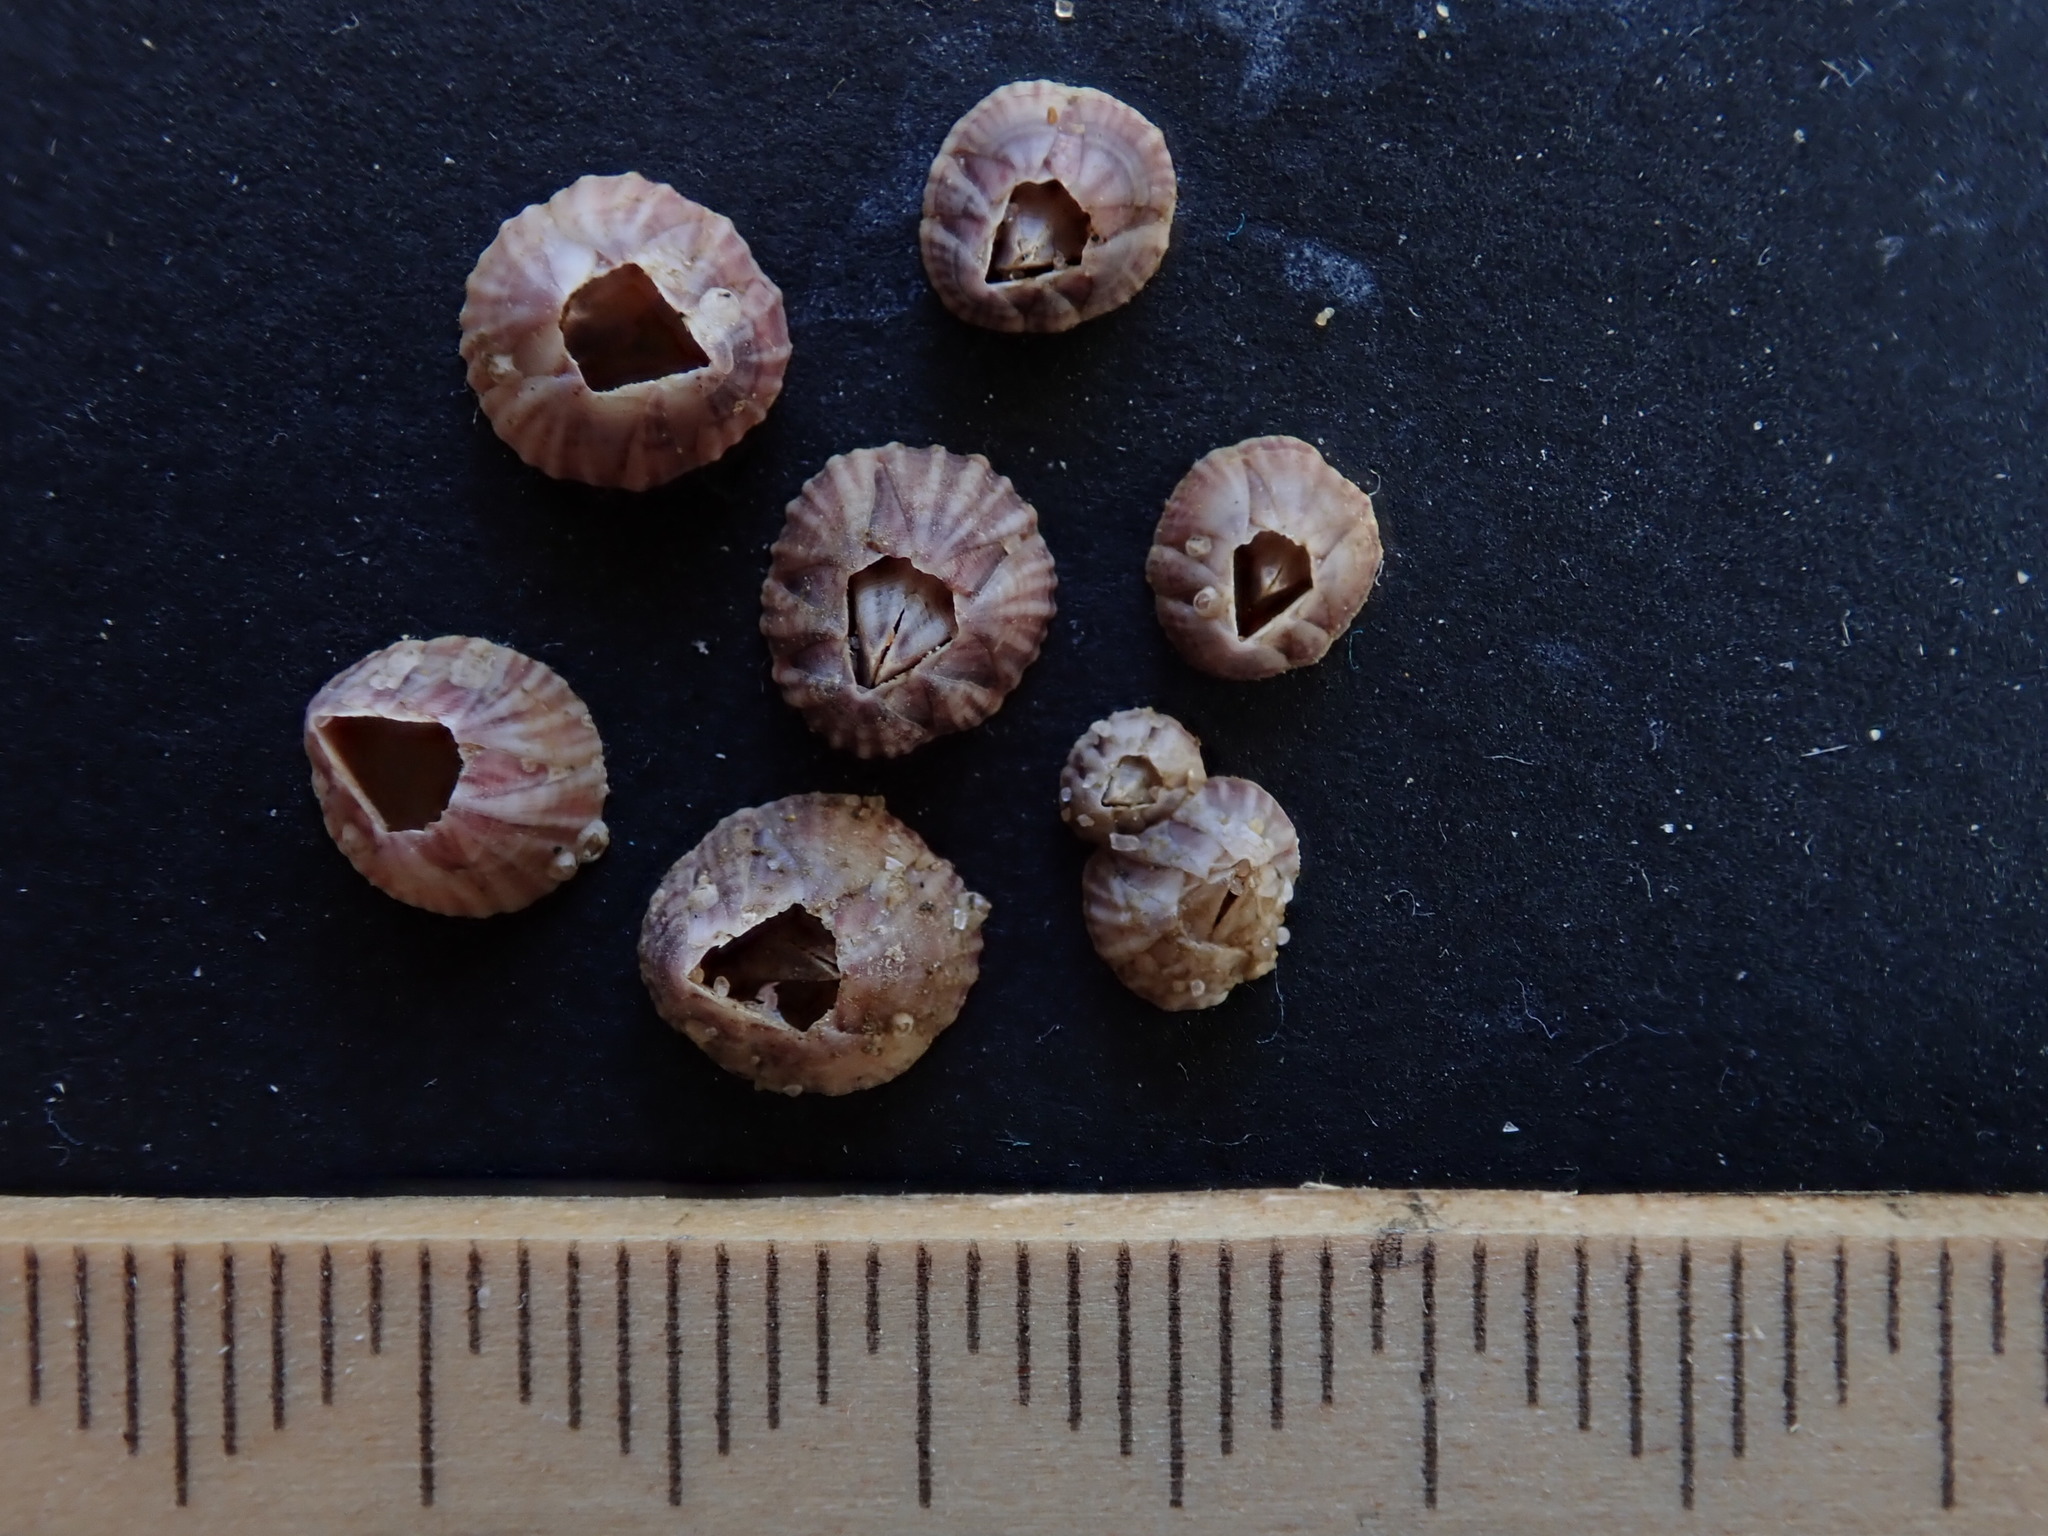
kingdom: Animalia
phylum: Arthropoda
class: Maxillopoda
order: Sessilia
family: Balanidae
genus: Balanus
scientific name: Balanus trigonus
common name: Triangle barnacle
